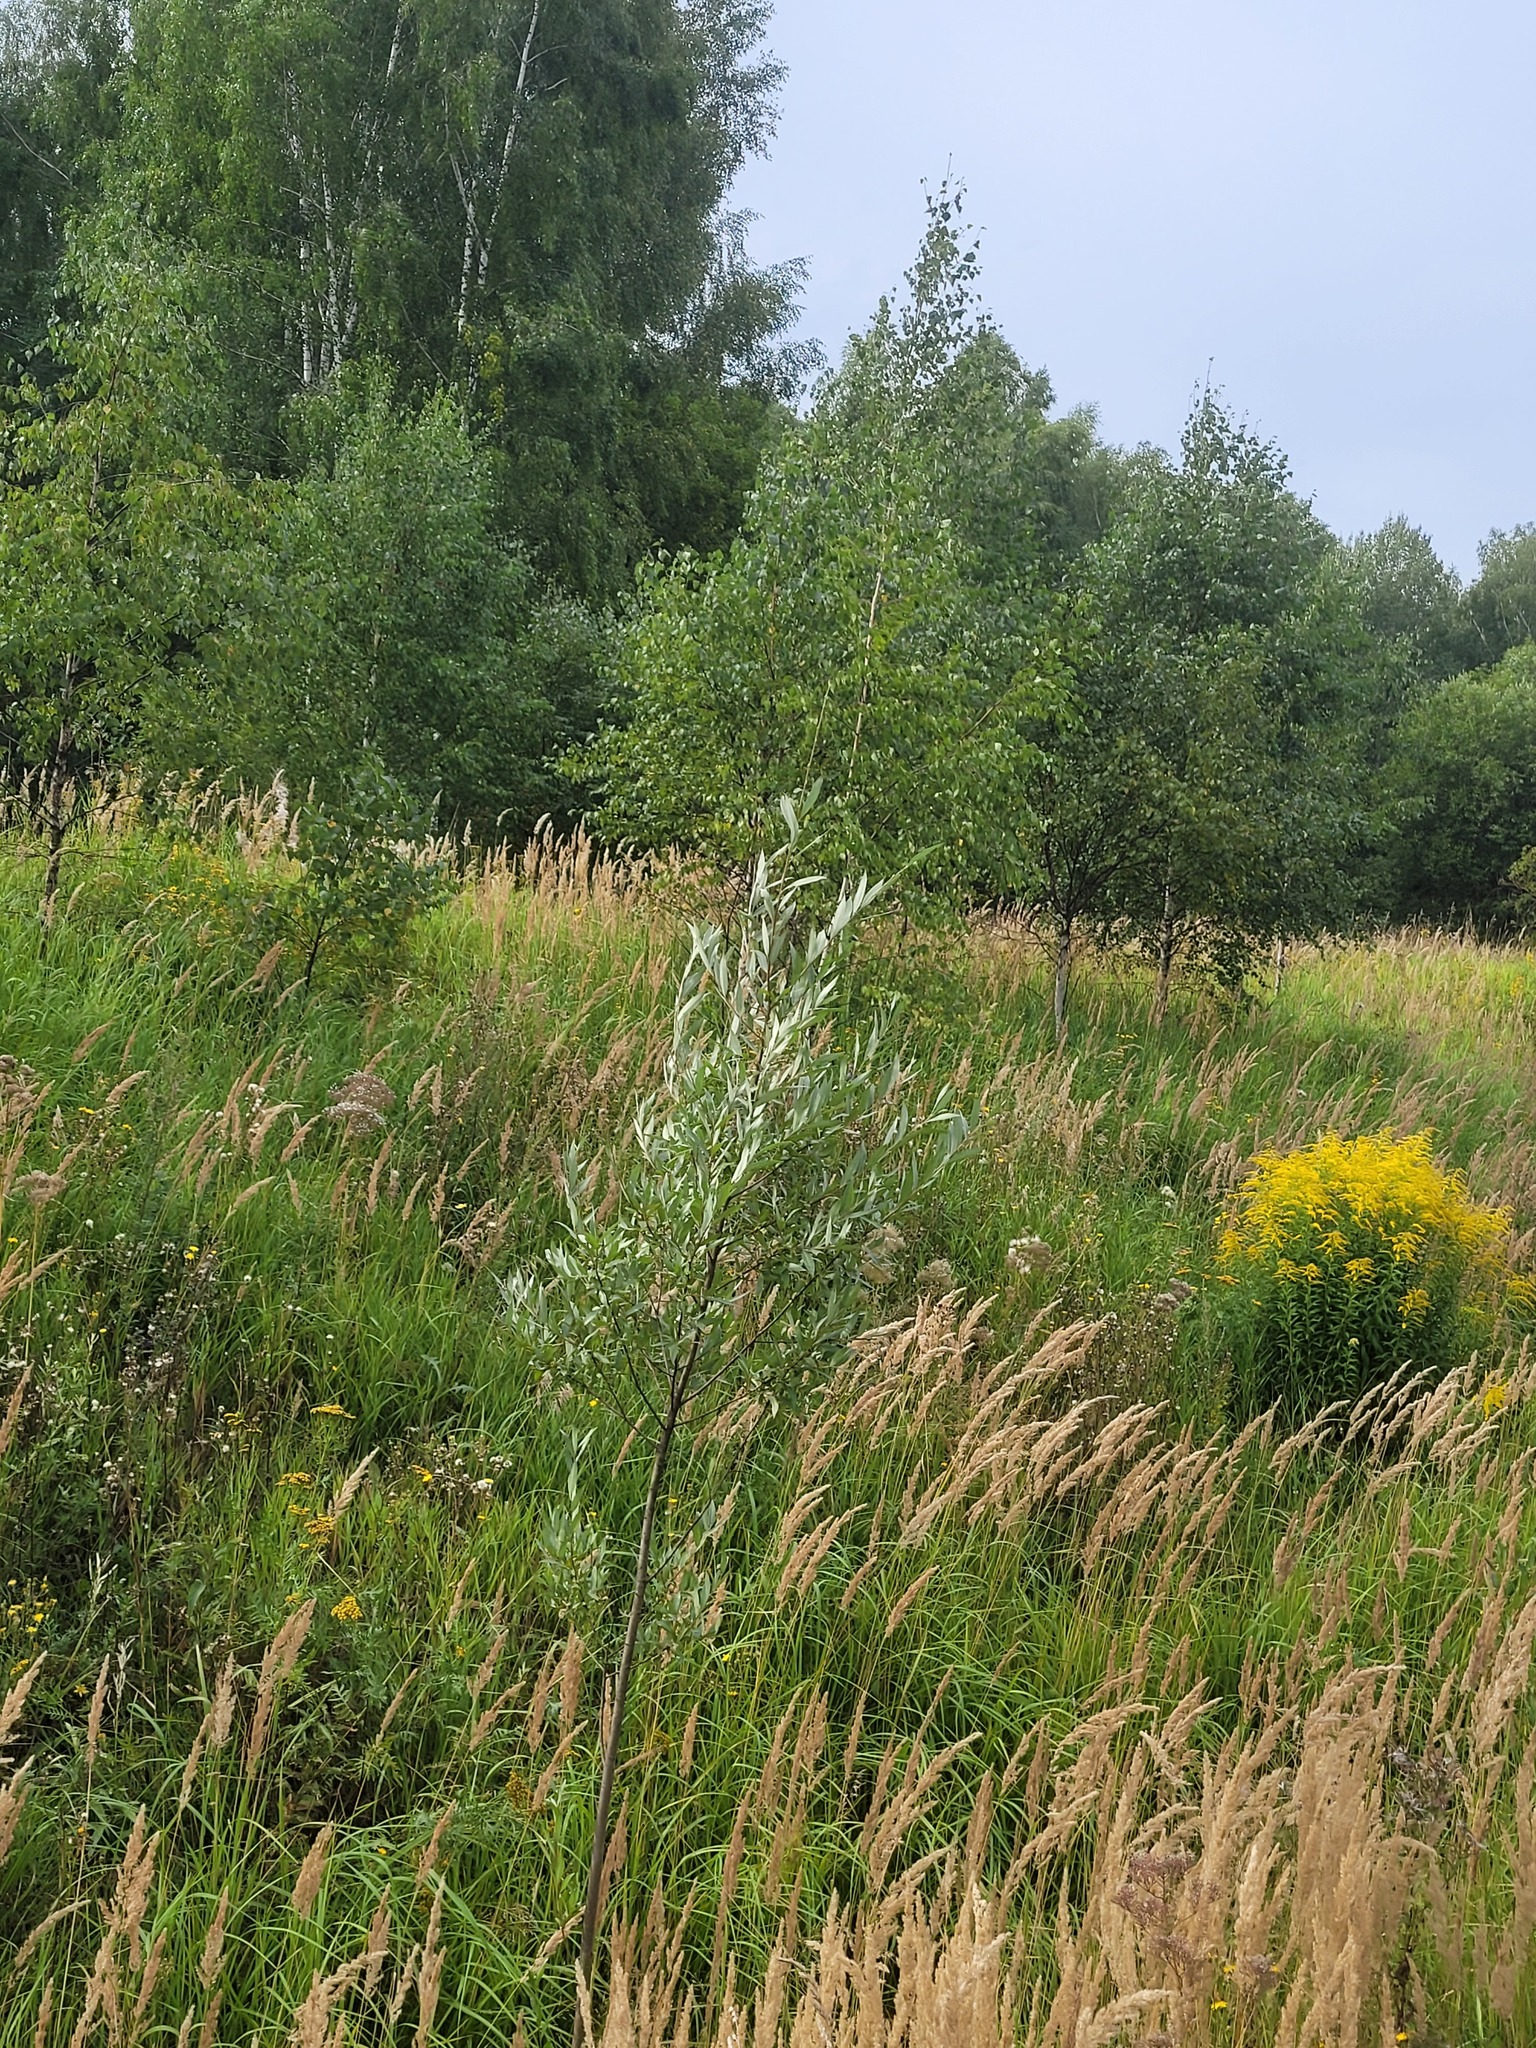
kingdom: Plantae
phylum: Tracheophyta
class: Magnoliopsida
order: Malpighiales
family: Salicaceae
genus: Salix
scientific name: Salix alba
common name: White willow
